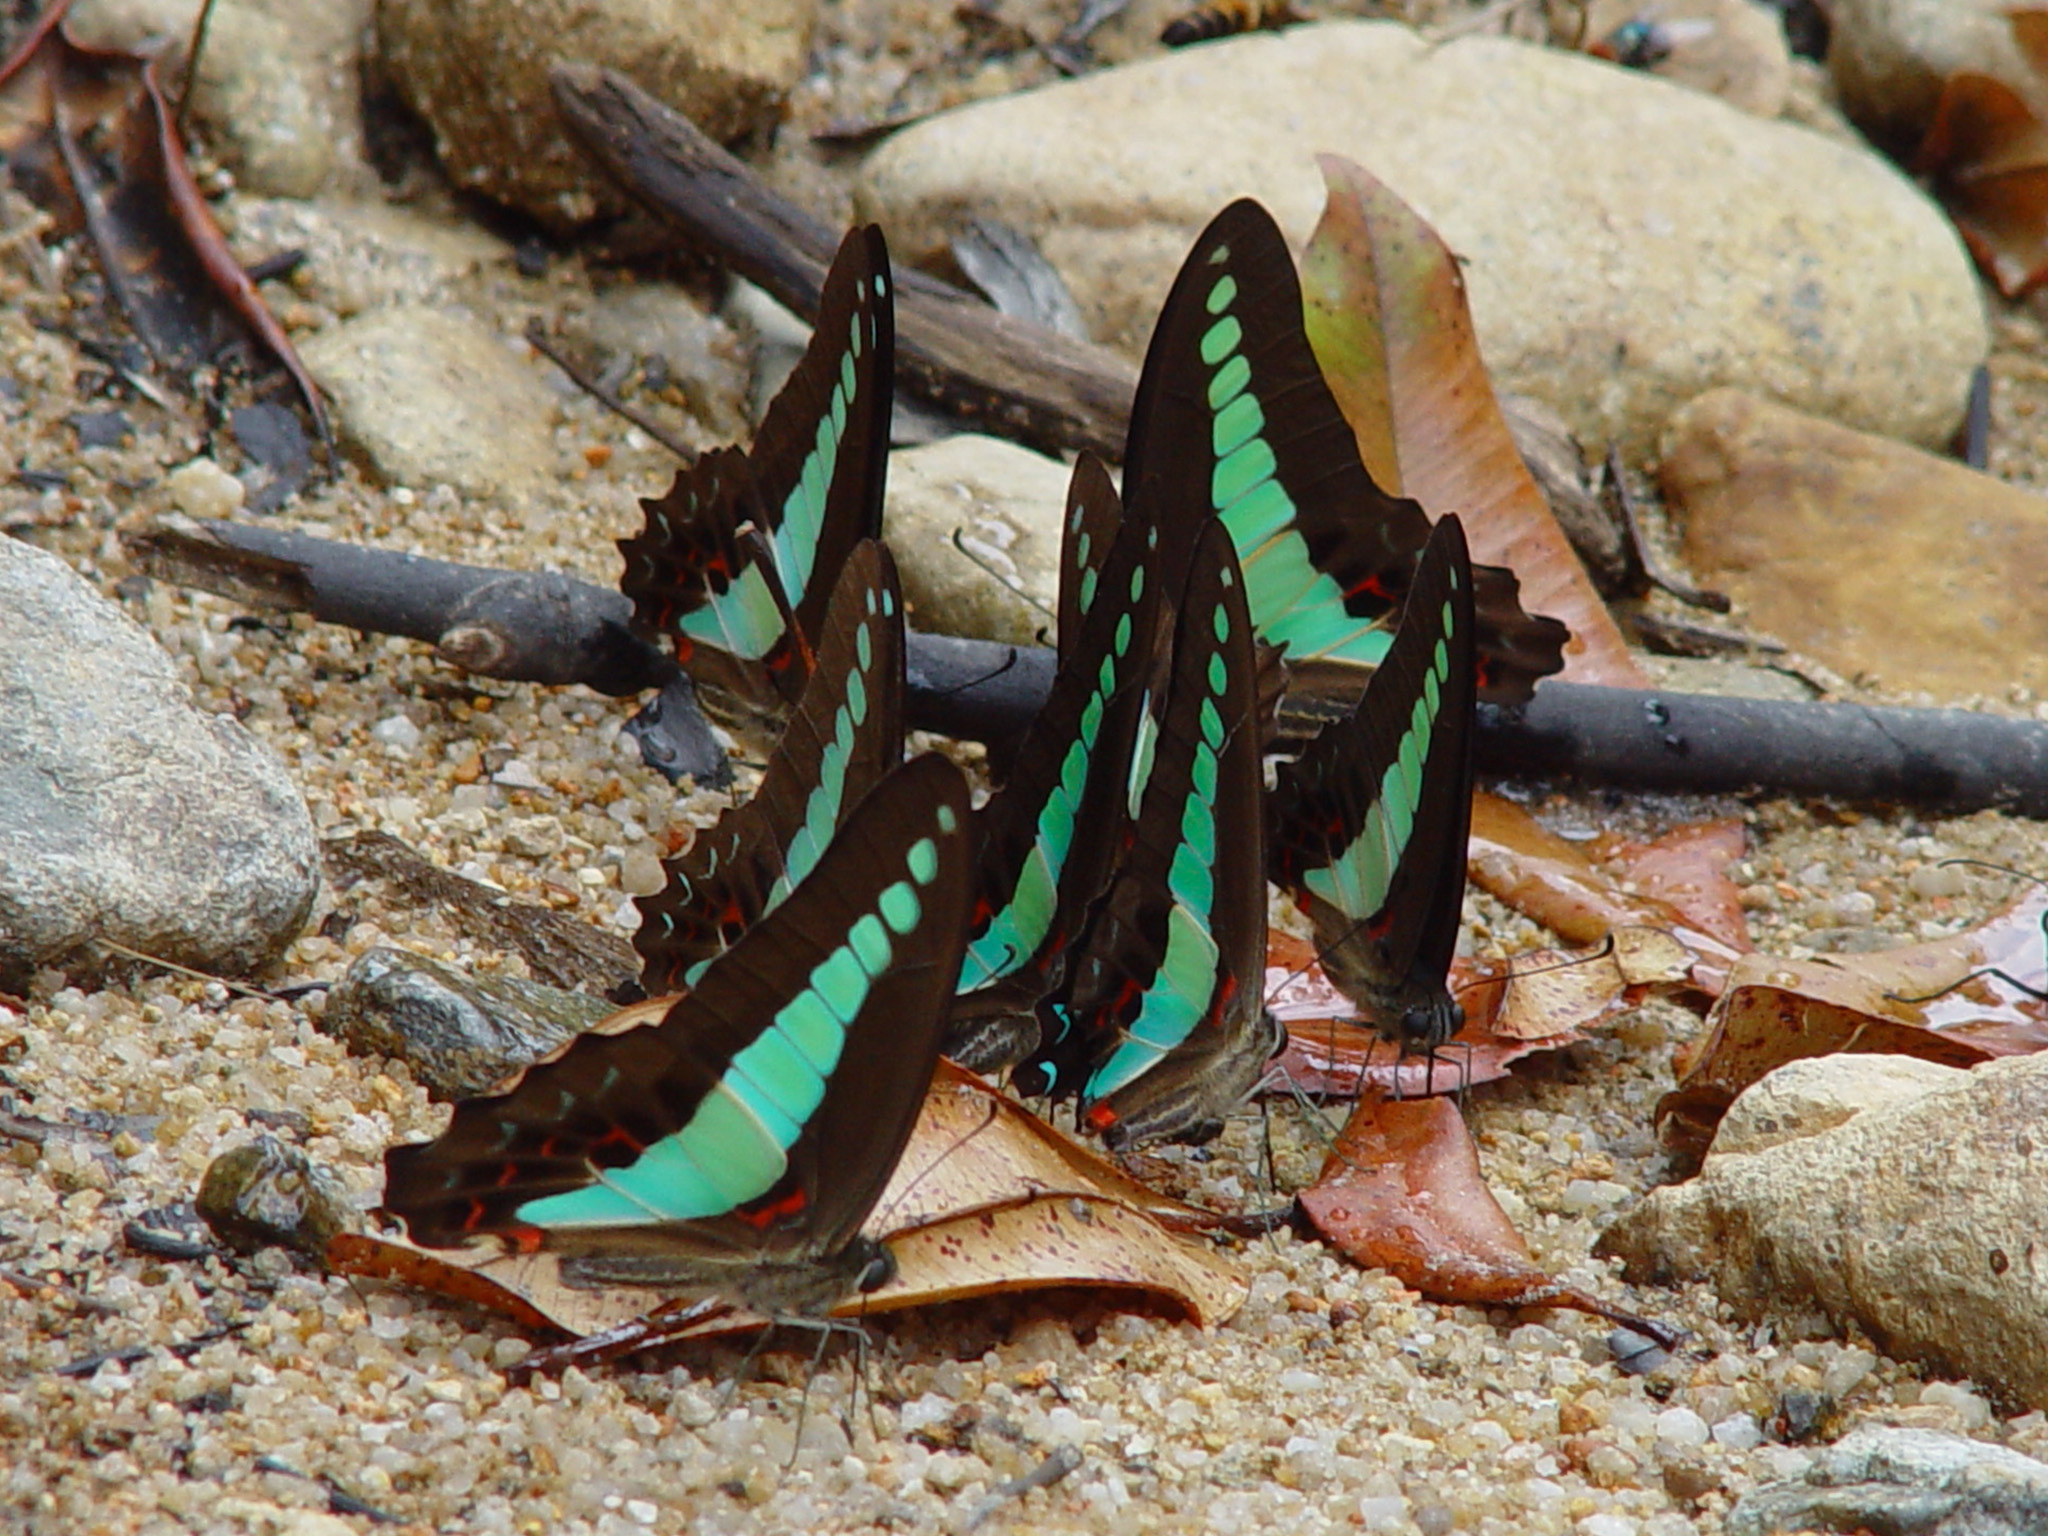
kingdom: Fungi
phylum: Ascomycota
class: Sordariomycetes
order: Microascales
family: Microascaceae
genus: Graphium
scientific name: Graphium sarpedon
